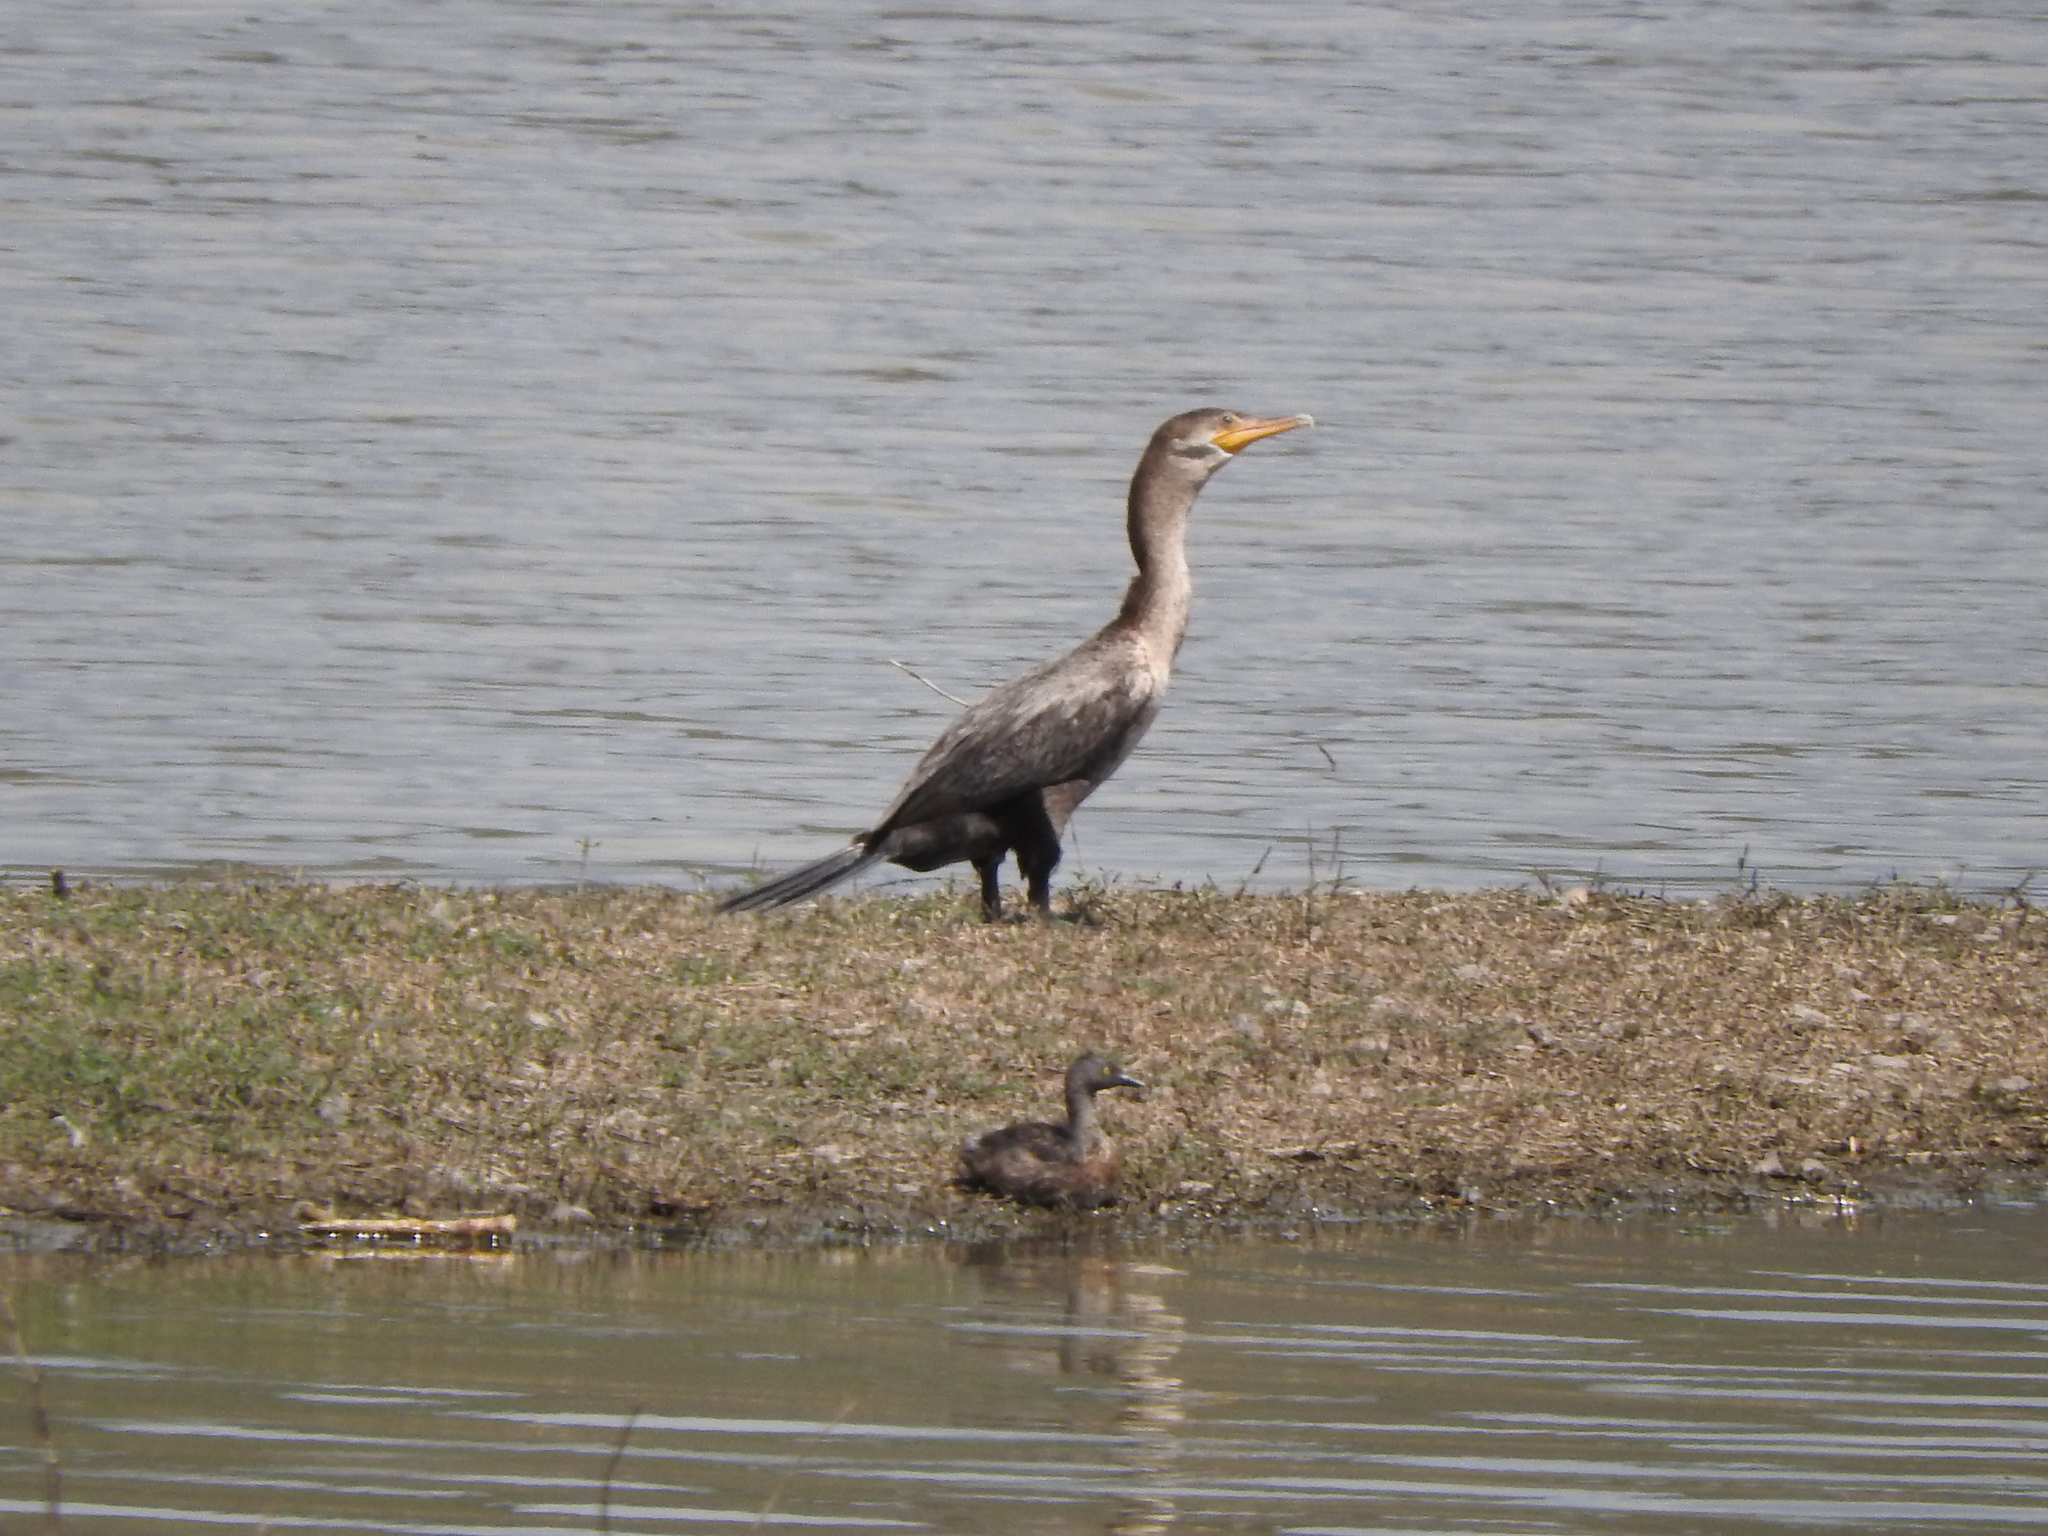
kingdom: Animalia
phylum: Chordata
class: Aves
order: Suliformes
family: Phalacrocoracidae
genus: Phalacrocorax
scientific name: Phalacrocorax auritus
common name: Double-crested cormorant
